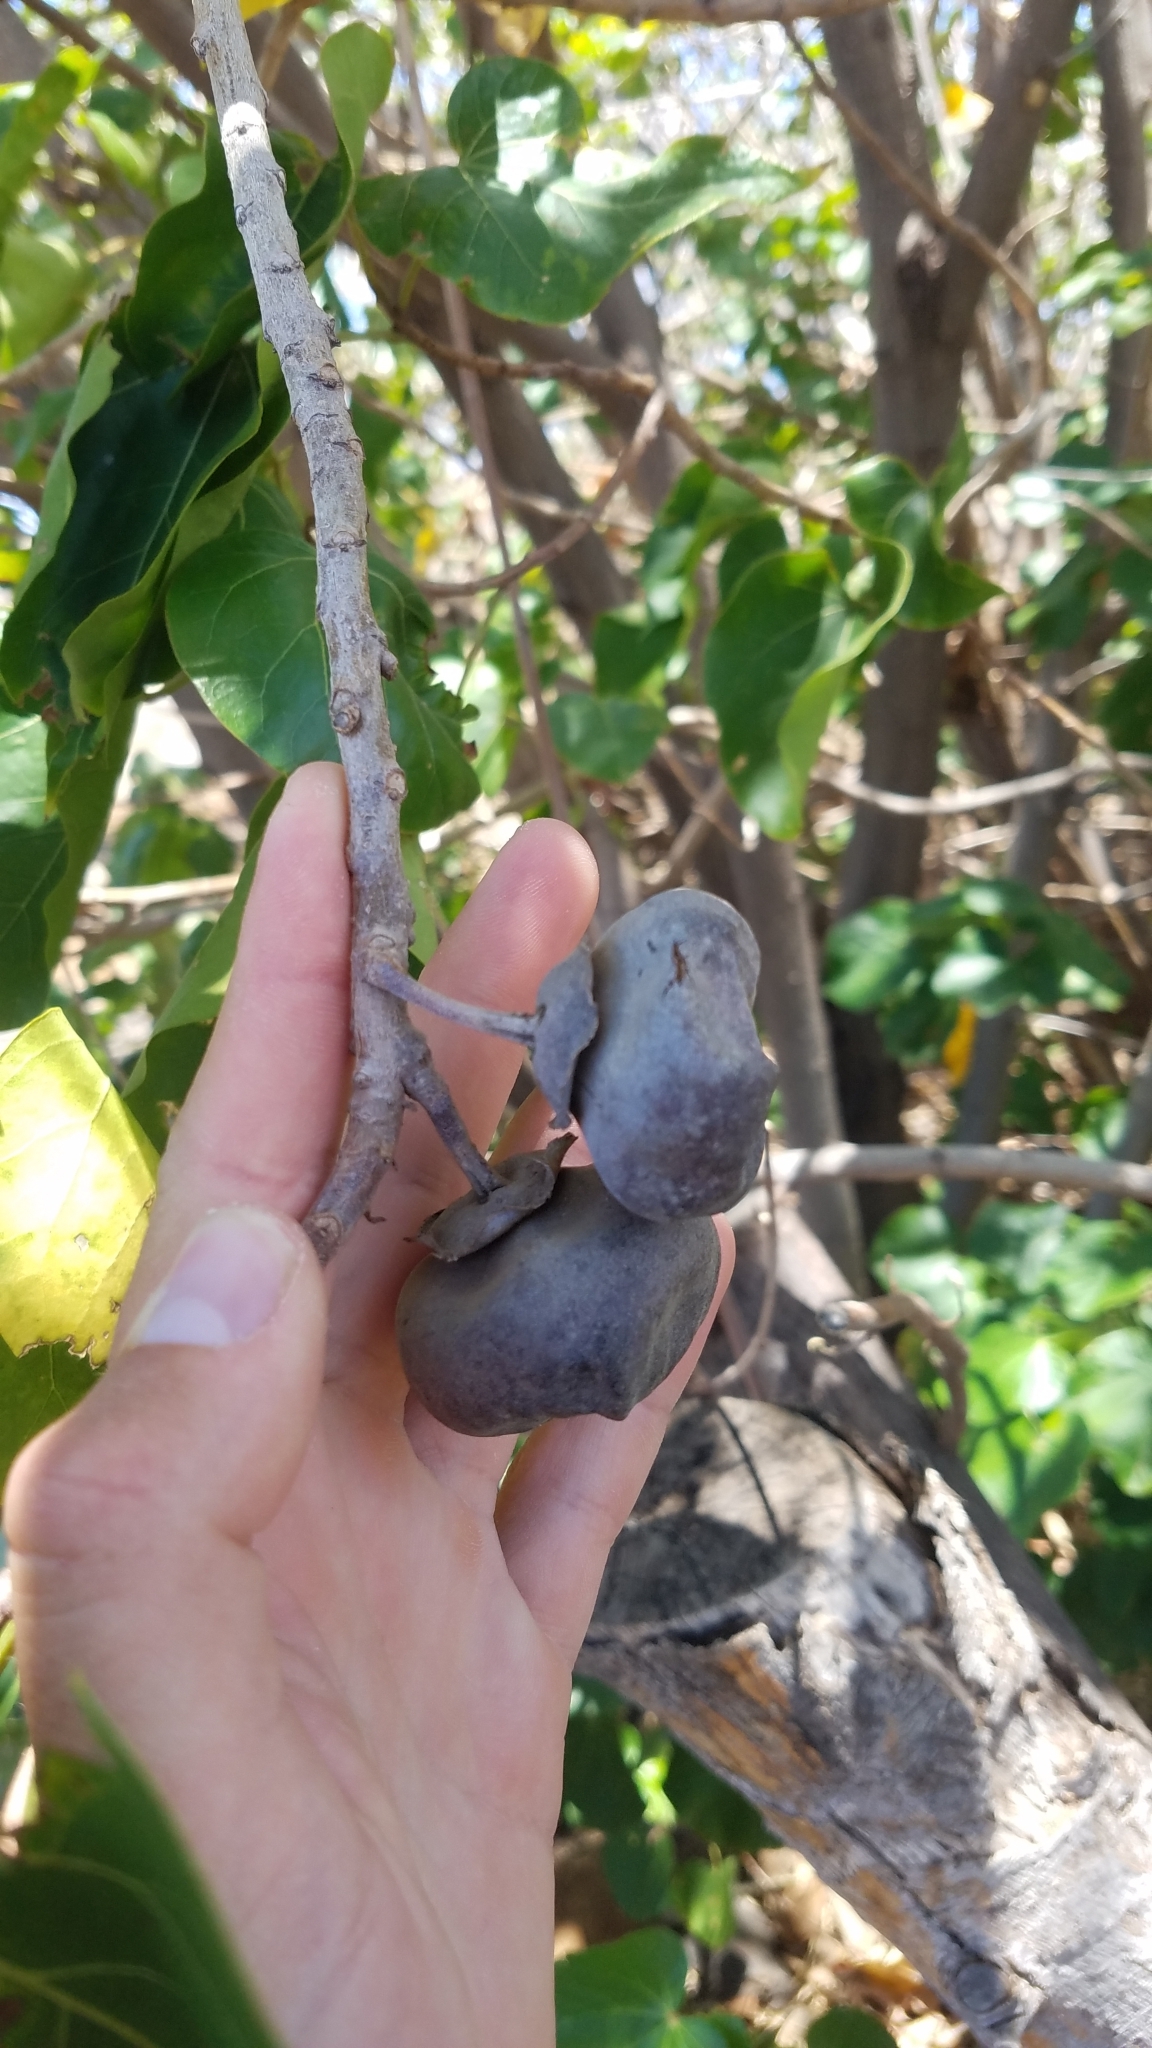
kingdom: Plantae
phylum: Tracheophyta
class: Magnoliopsida
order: Malvales
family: Malvaceae
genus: Thespesia
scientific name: Thespesia populnea
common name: Seaside mahoe
